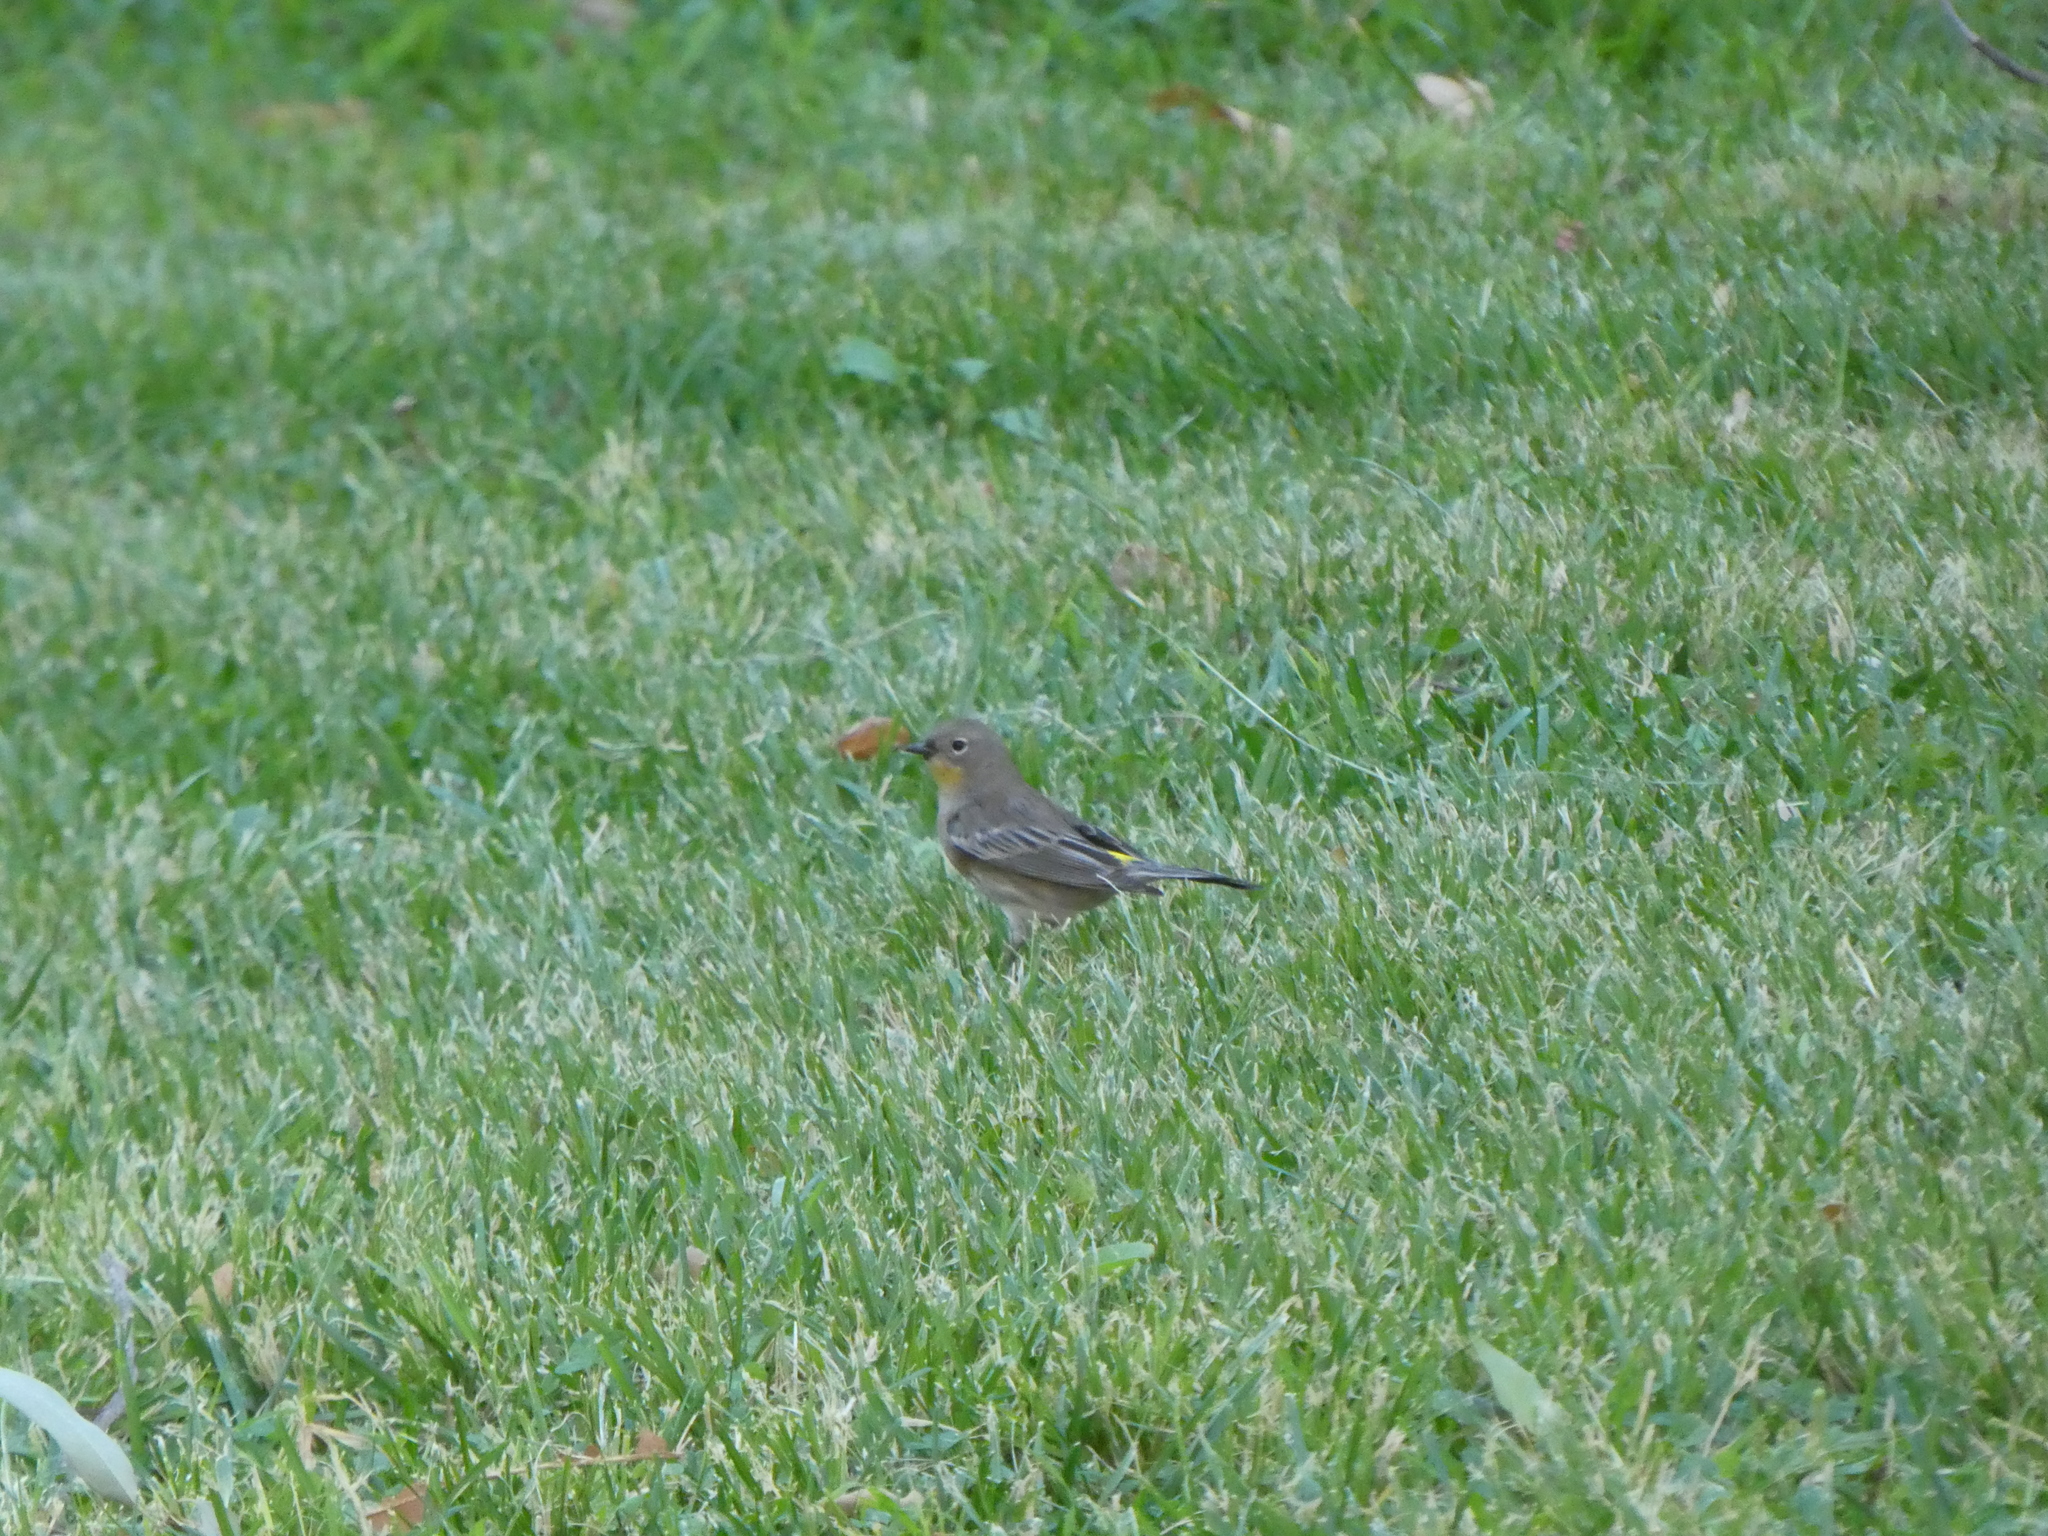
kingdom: Animalia
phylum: Chordata
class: Aves
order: Passeriformes
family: Parulidae
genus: Setophaga
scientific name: Setophaga coronata
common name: Myrtle warbler
